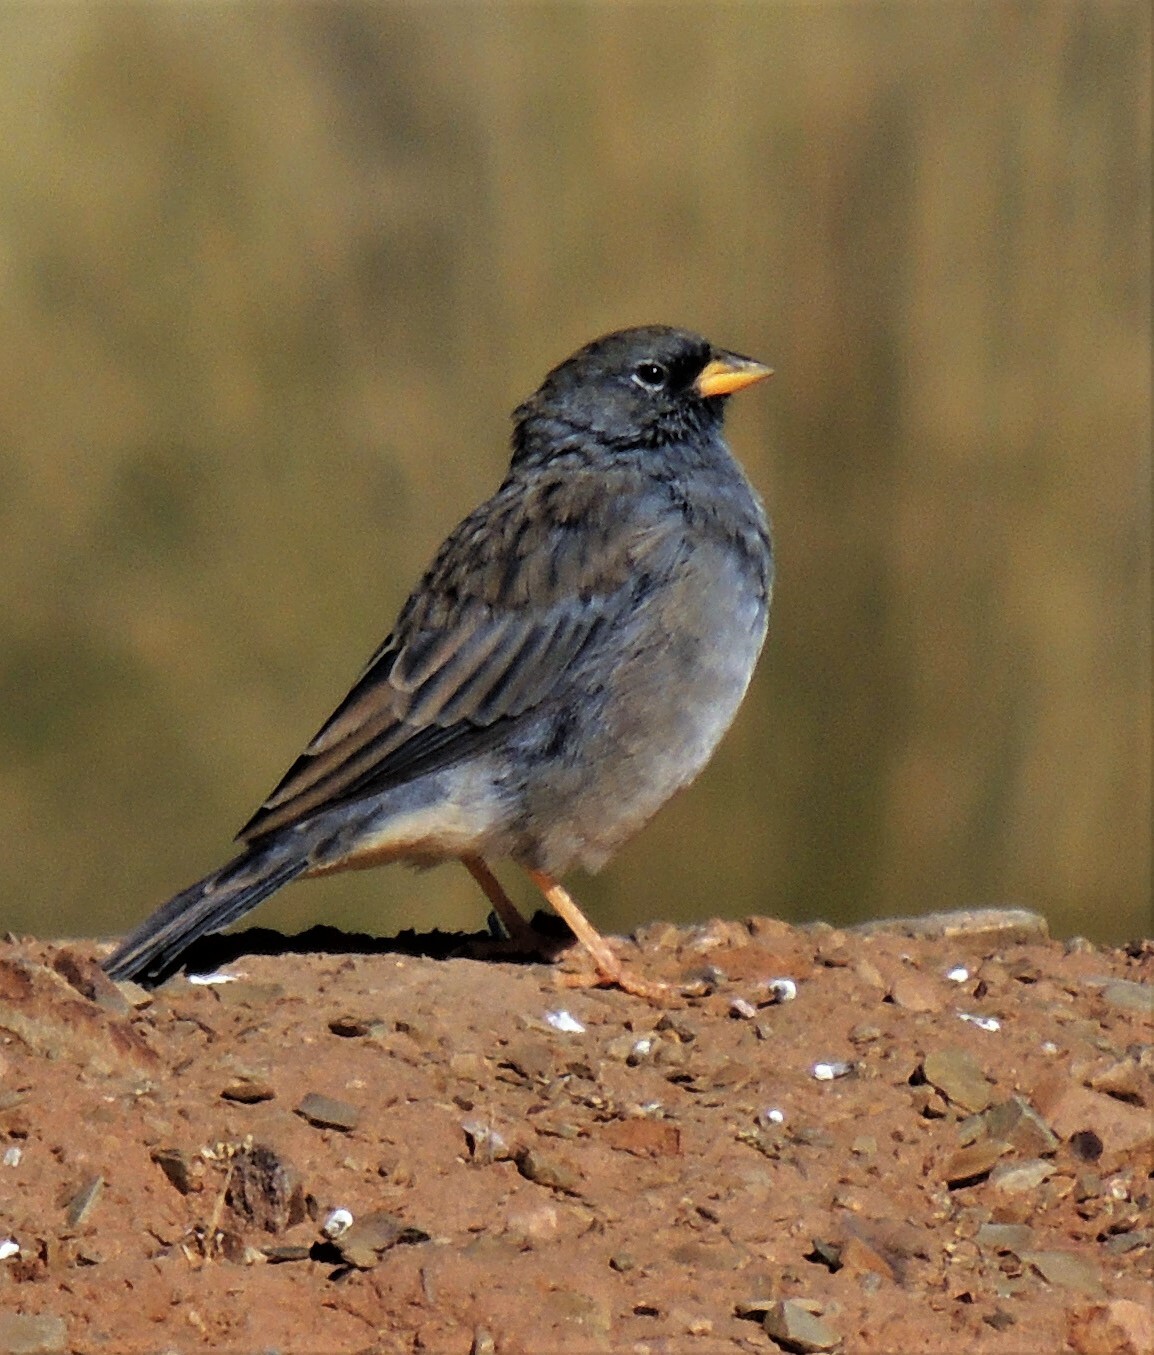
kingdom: Animalia
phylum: Chordata
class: Aves
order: Passeriformes
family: Thraupidae
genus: Porphyrospiza
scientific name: Porphyrospiza alaudina
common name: Band-tailed sierra finch
